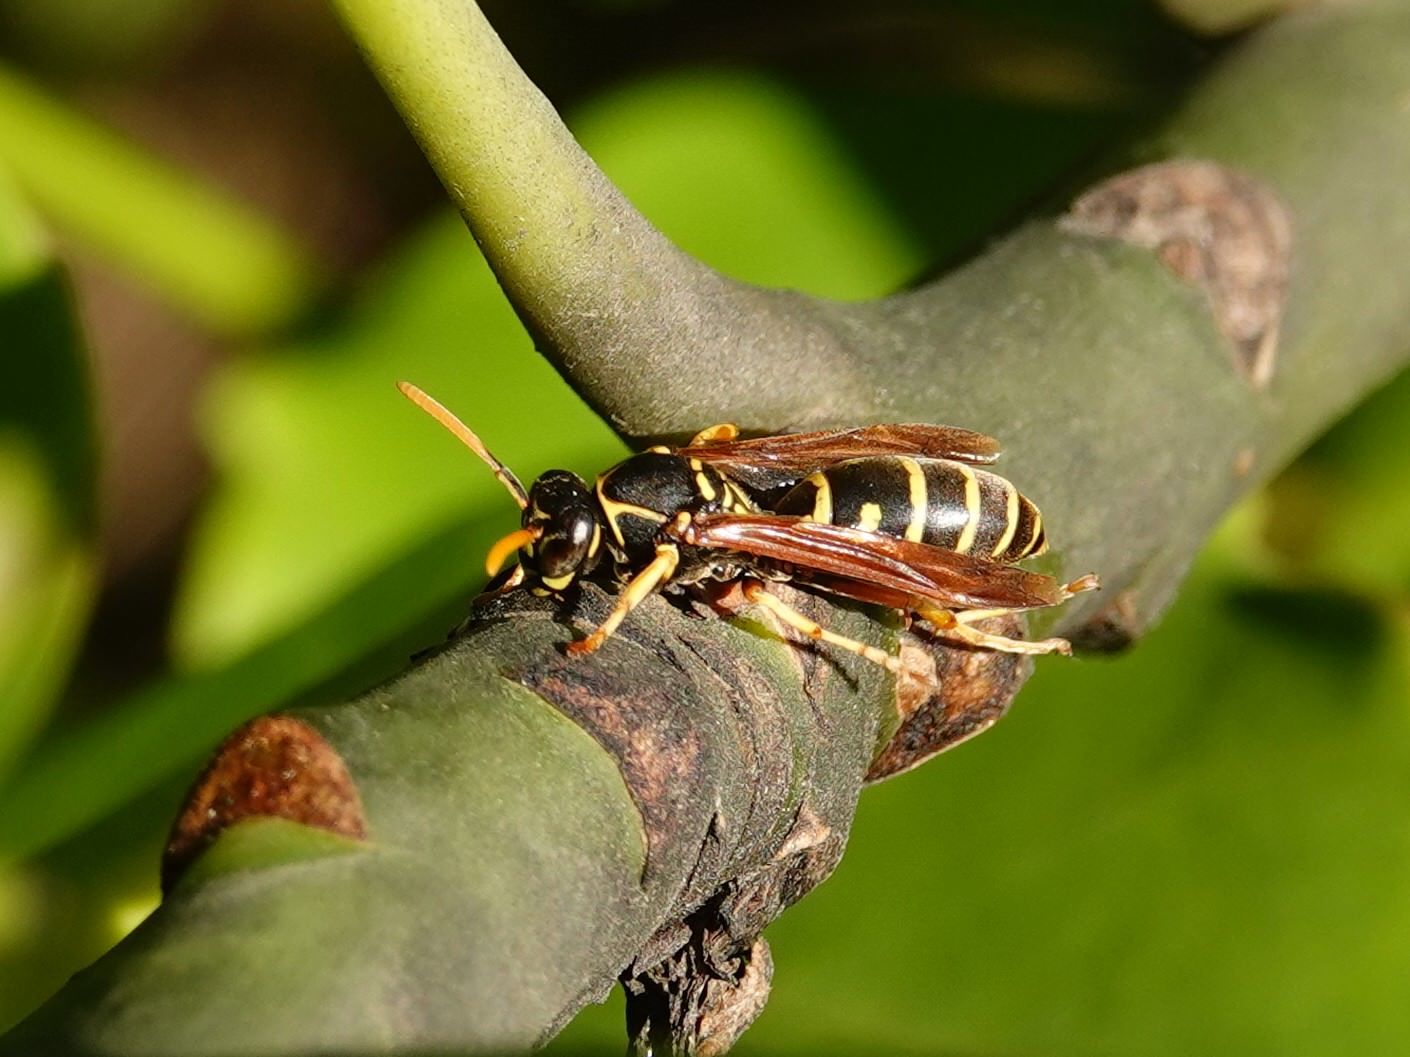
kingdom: Animalia
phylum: Arthropoda
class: Insecta
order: Hymenoptera
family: Eumenidae
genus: Polistes
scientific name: Polistes chinensis
